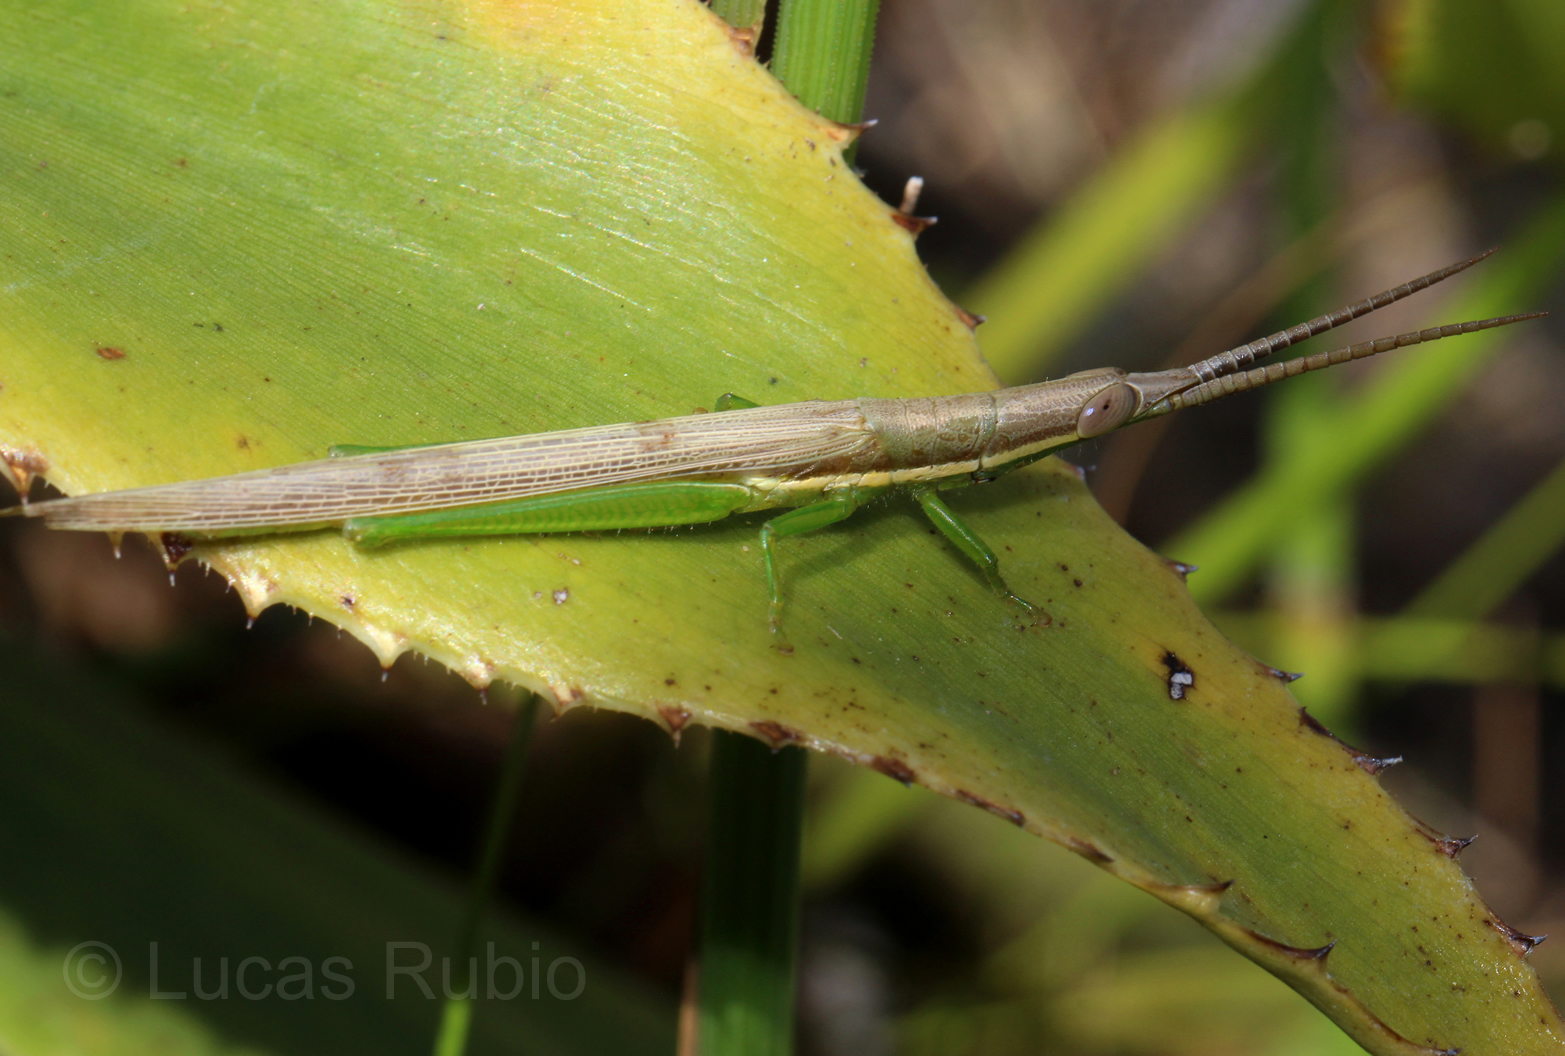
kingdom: Animalia
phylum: Arthropoda
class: Insecta
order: Orthoptera
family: Acrididae
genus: Leptysma
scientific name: Leptysma argentina
